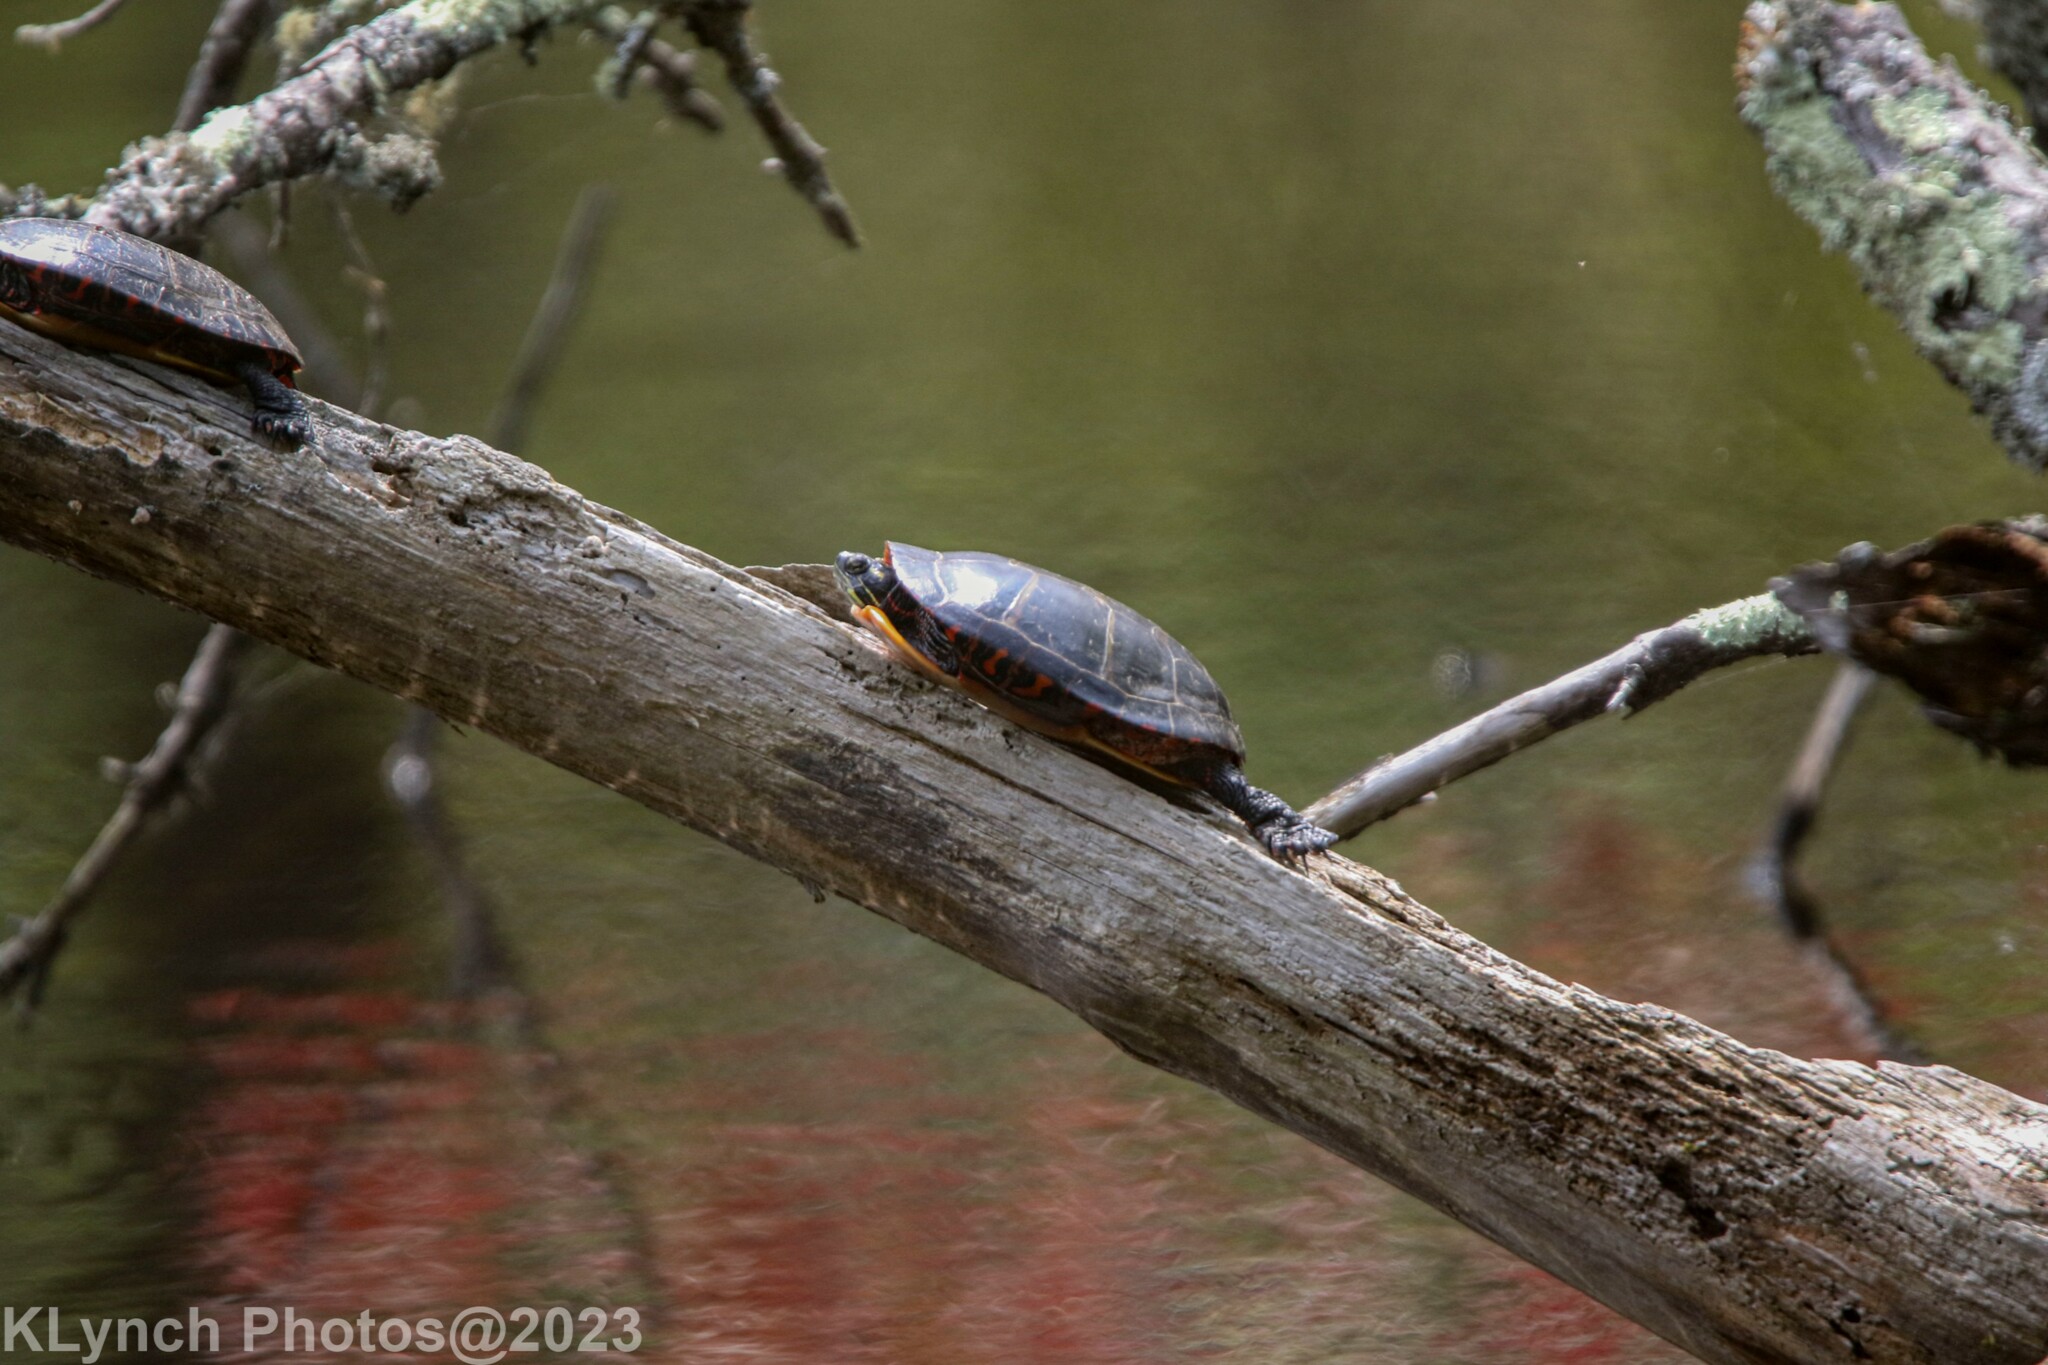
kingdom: Animalia
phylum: Chordata
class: Testudines
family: Emydidae
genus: Chrysemys
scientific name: Chrysemys picta
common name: Painted turtle
